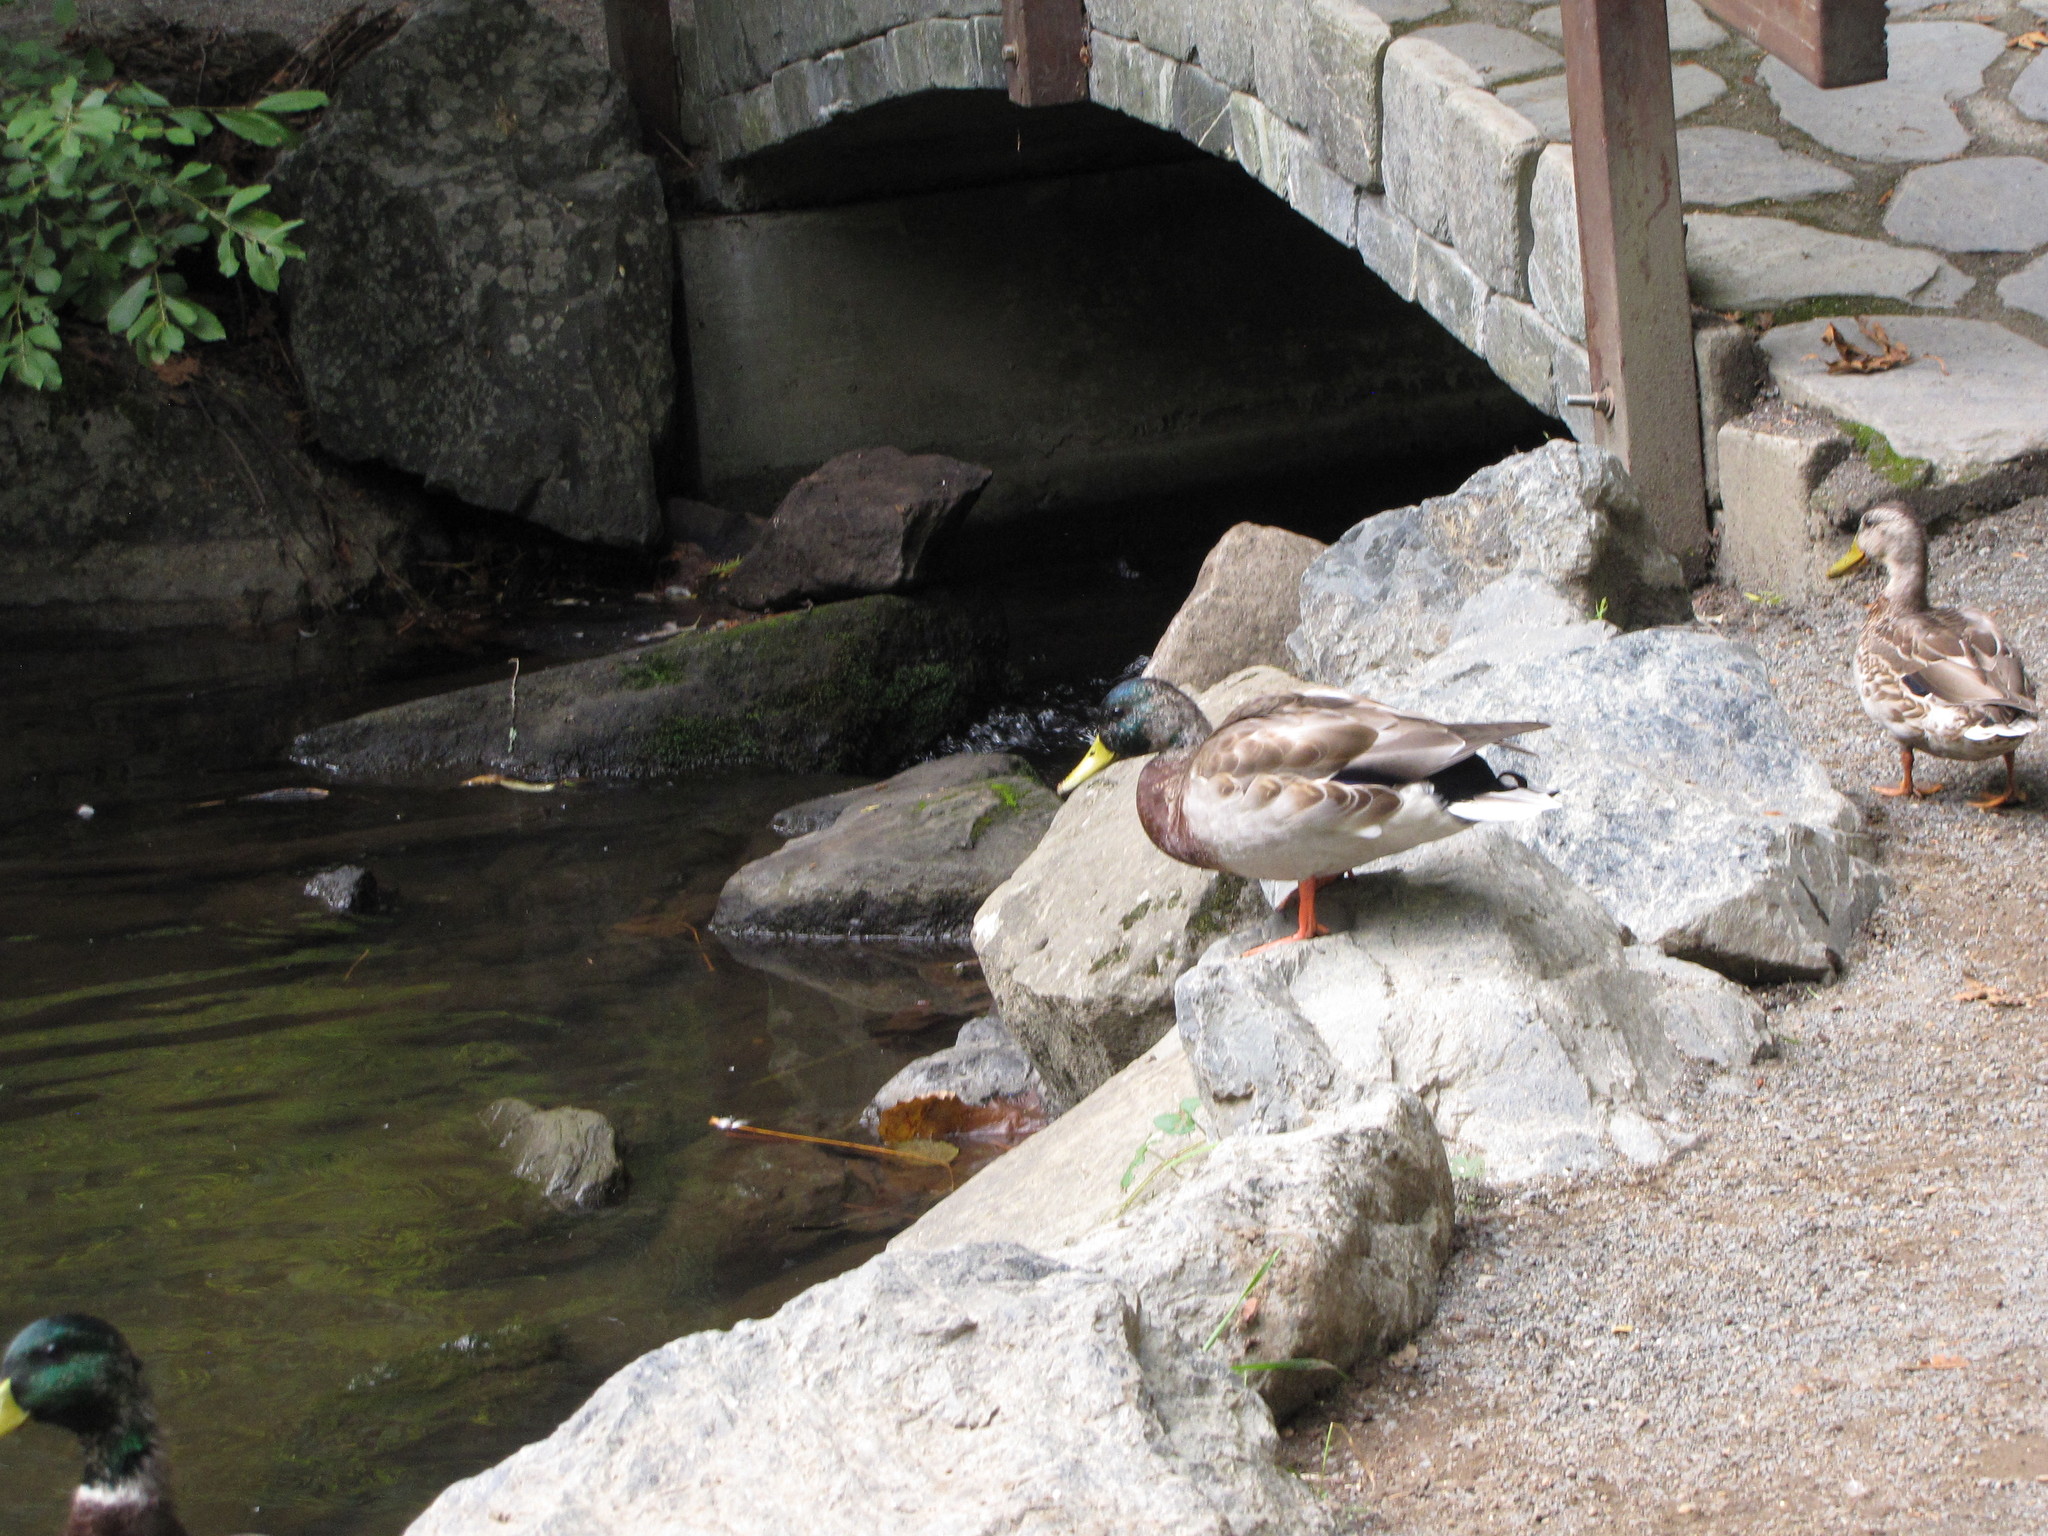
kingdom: Animalia
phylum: Chordata
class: Aves
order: Anseriformes
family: Anatidae
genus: Anas
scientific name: Anas platyrhynchos
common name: Mallard
